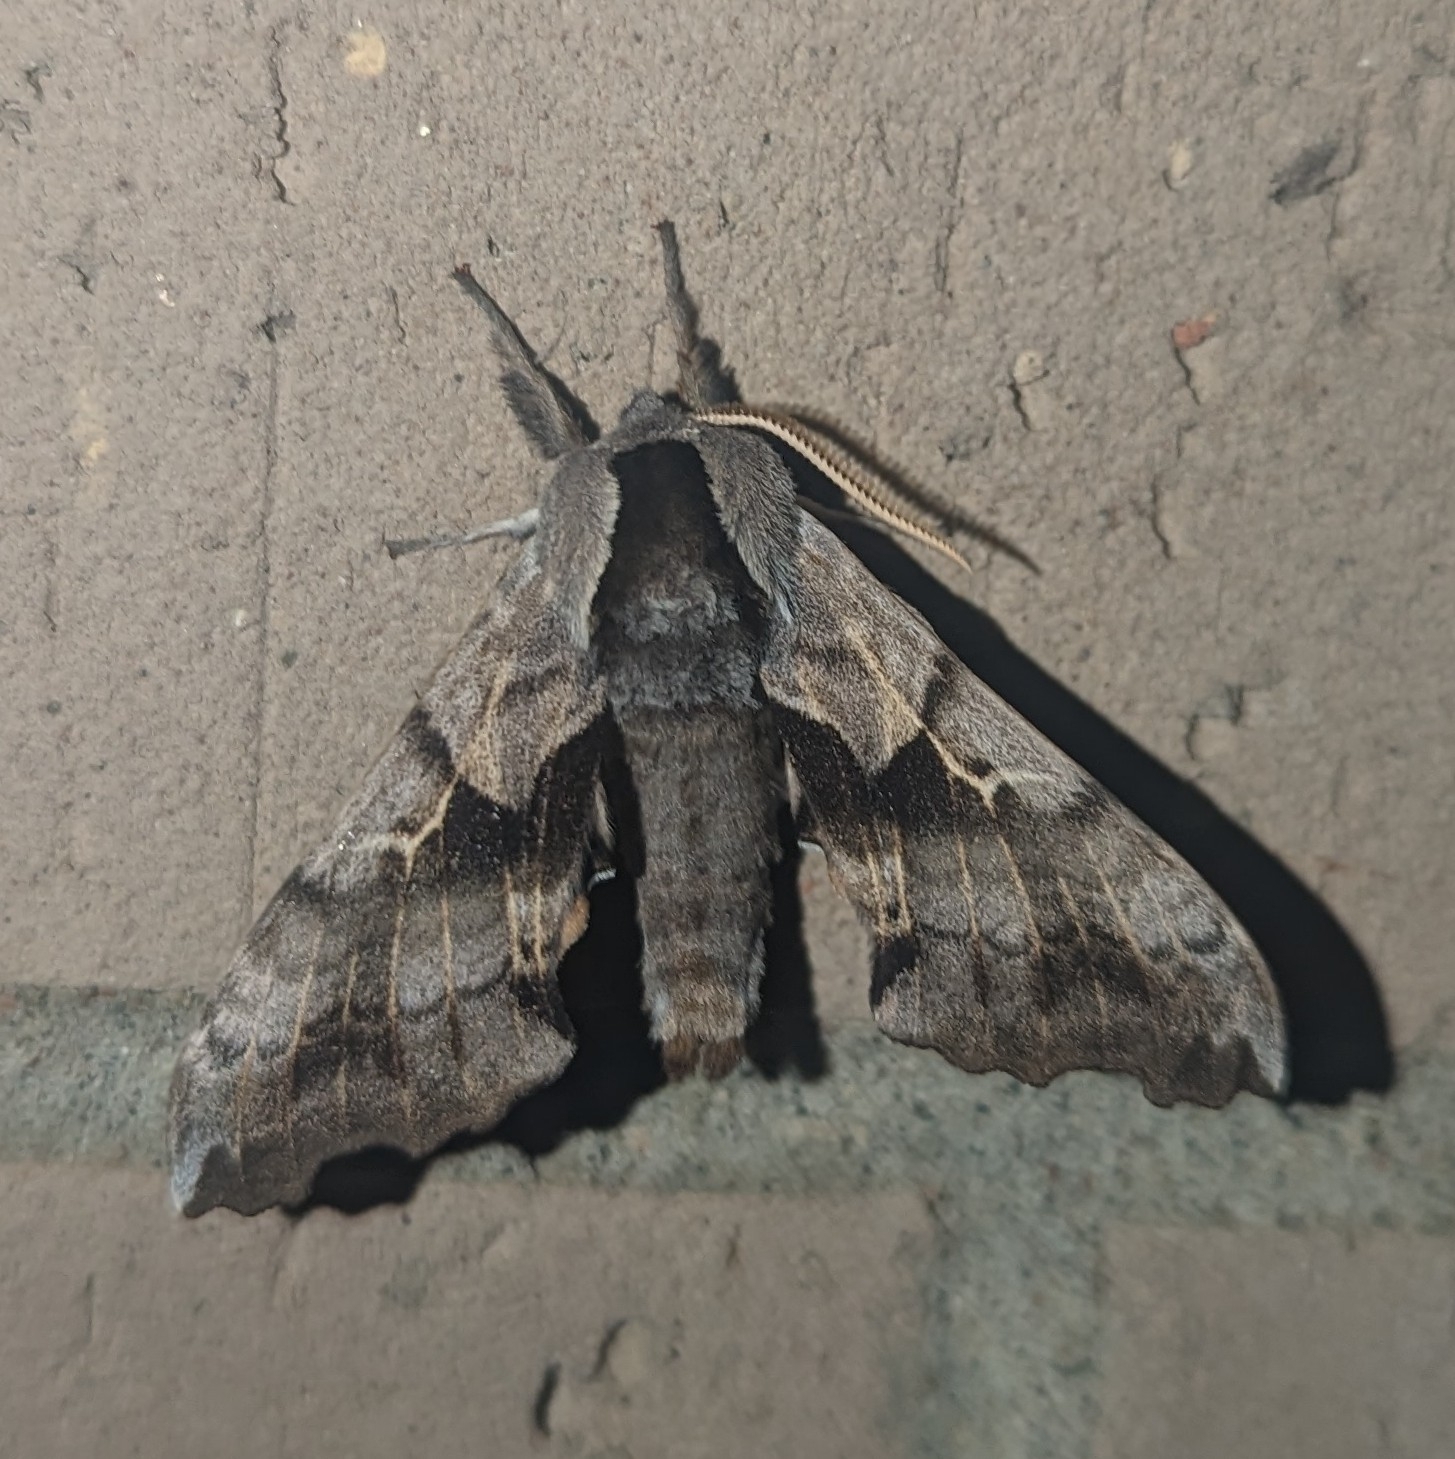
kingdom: Animalia
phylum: Arthropoda
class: Insecta
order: Lepidoptera
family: Sphingidae
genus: Smerinthus
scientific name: Smerinthus cerisyi
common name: Cerisy's sphinx moth
